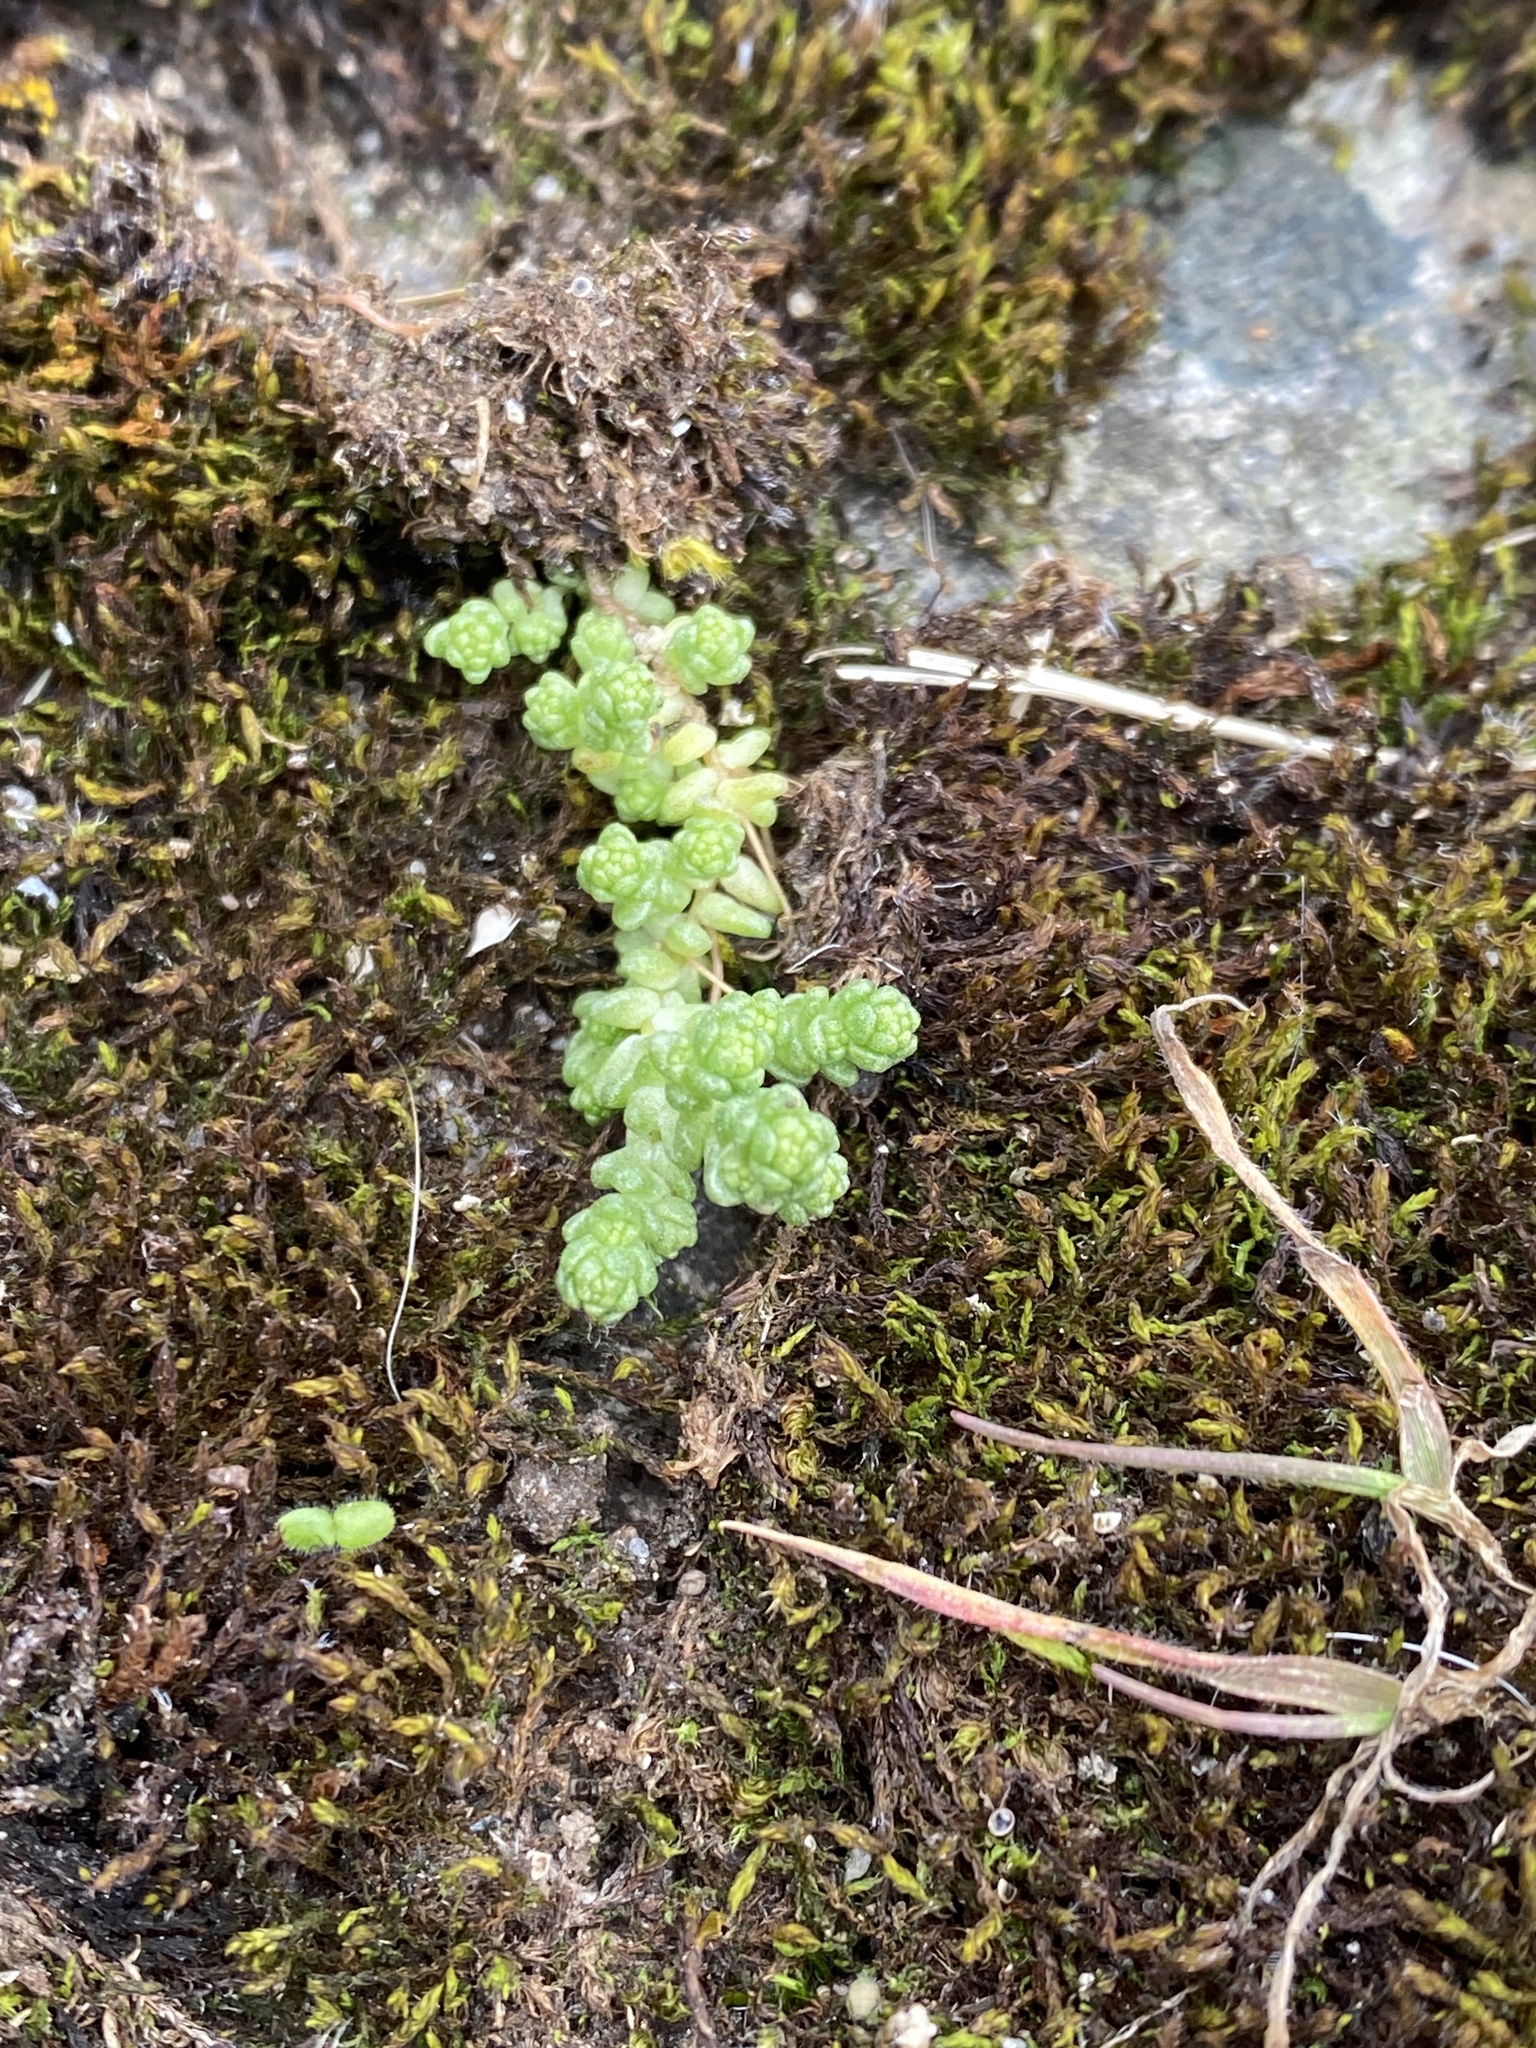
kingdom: Plantae
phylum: Tracheophyta
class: Magnoliopsida
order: Saxifragales
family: Crassulaceae
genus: Sedum
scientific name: Sedum acre
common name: Biting stonecrop
